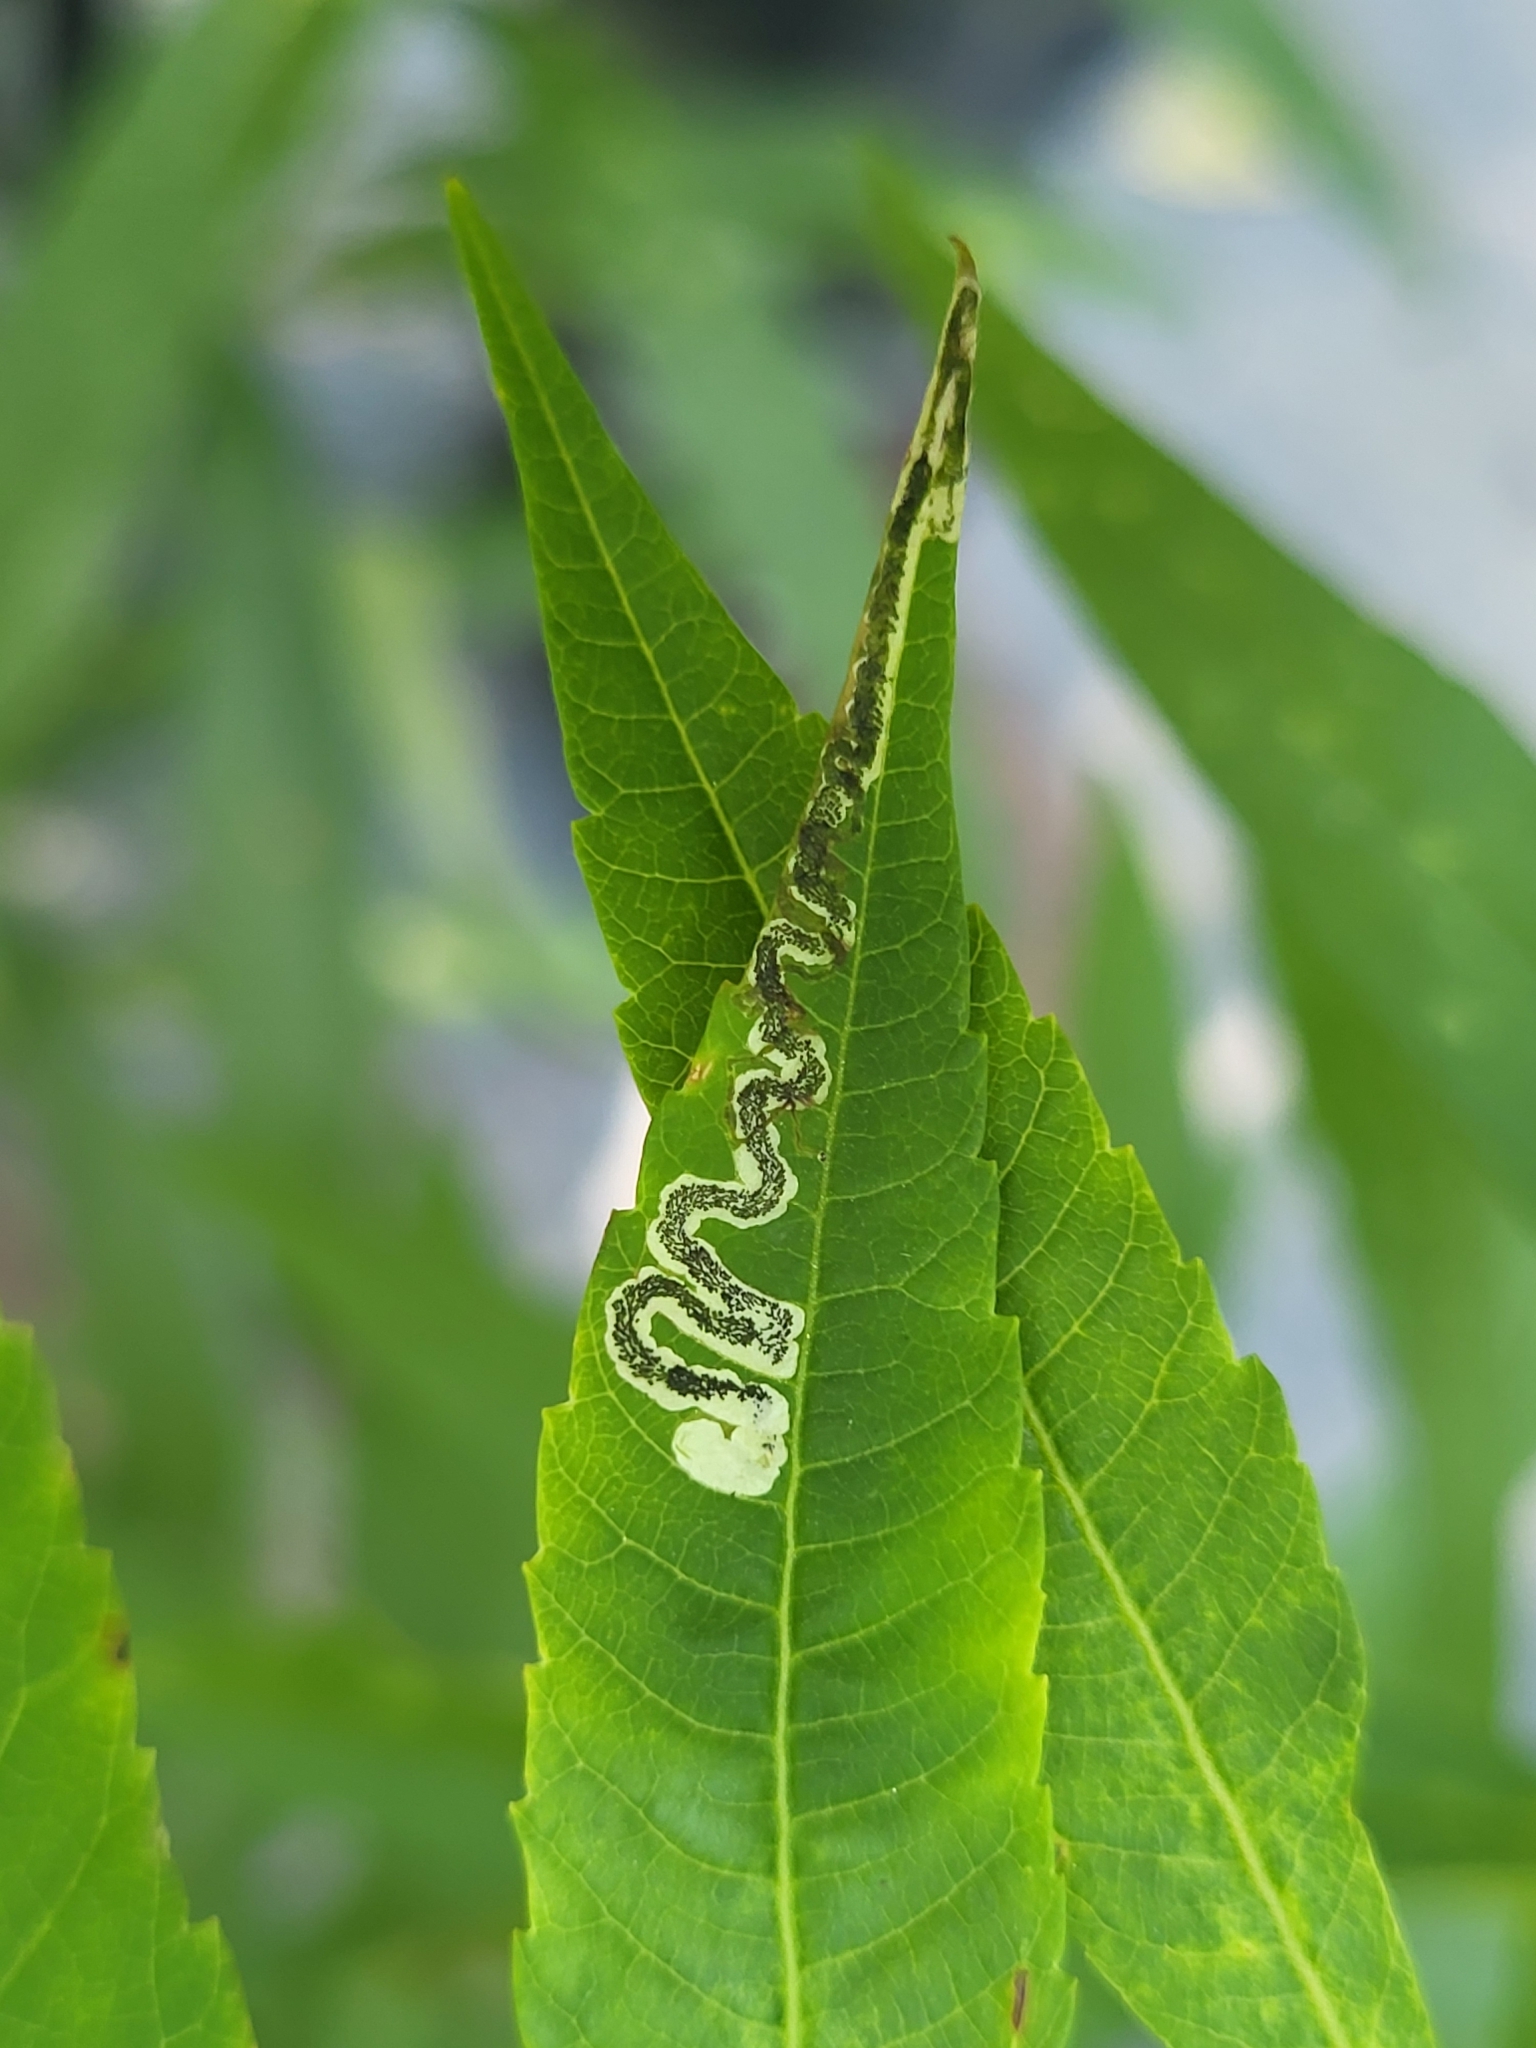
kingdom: Animalia
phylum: Arthropoda
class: Insecta
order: Lepidoptera
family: Nepticulidae
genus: Stigmella
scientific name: Stigmella intermedia
